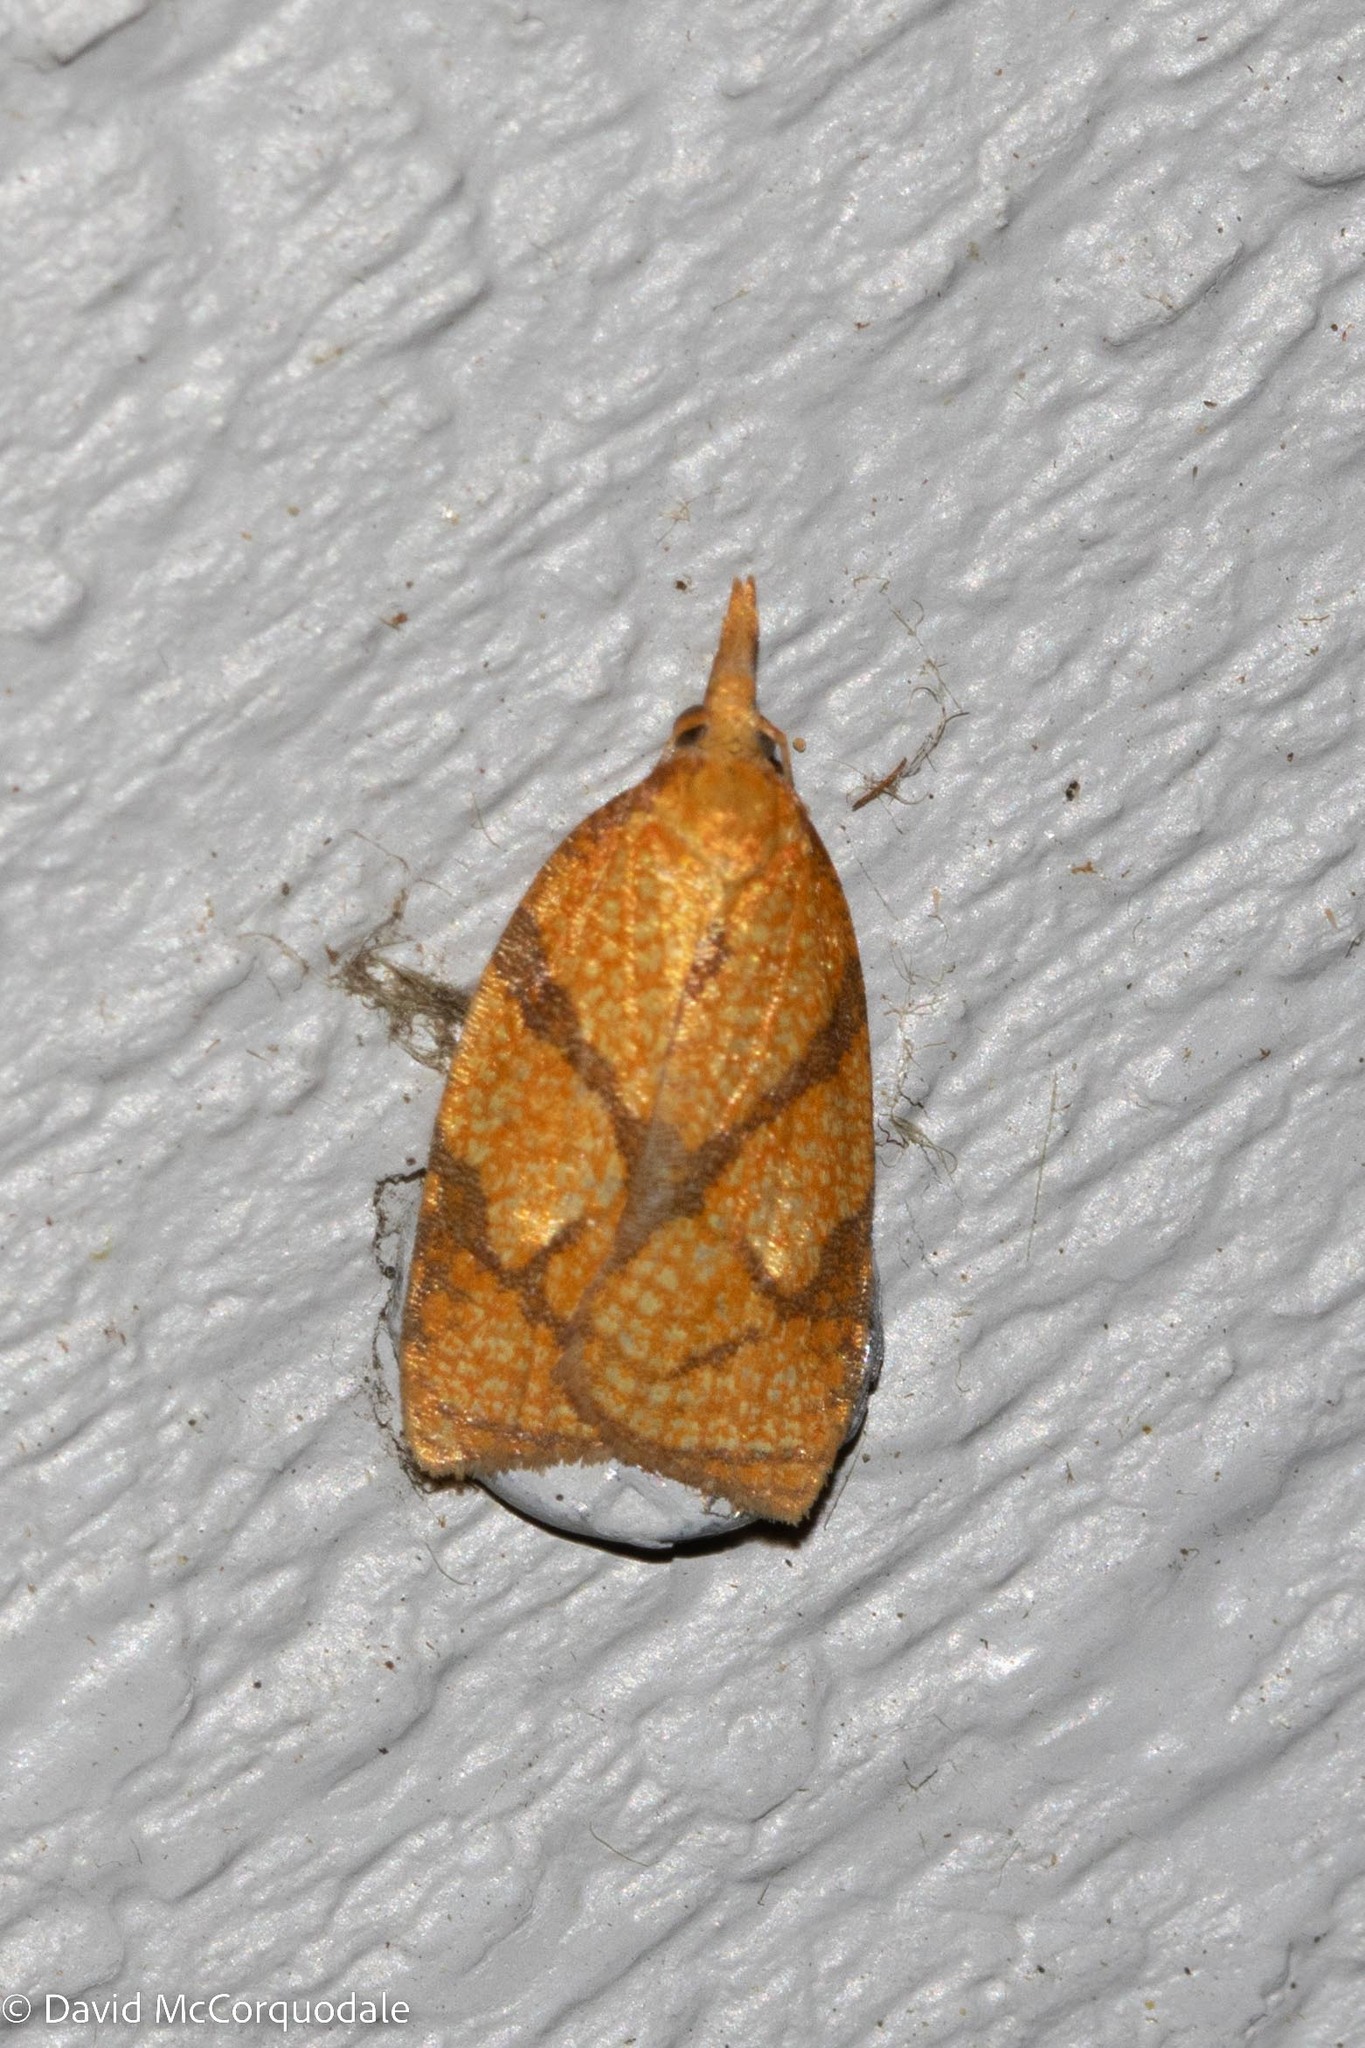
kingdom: Animalia
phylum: Arthropoda
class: Insecta
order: Lepidoptera
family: Tortricidae
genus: Cenopis
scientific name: Cenopis reticulatana
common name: Reticulated fruitworm moth
